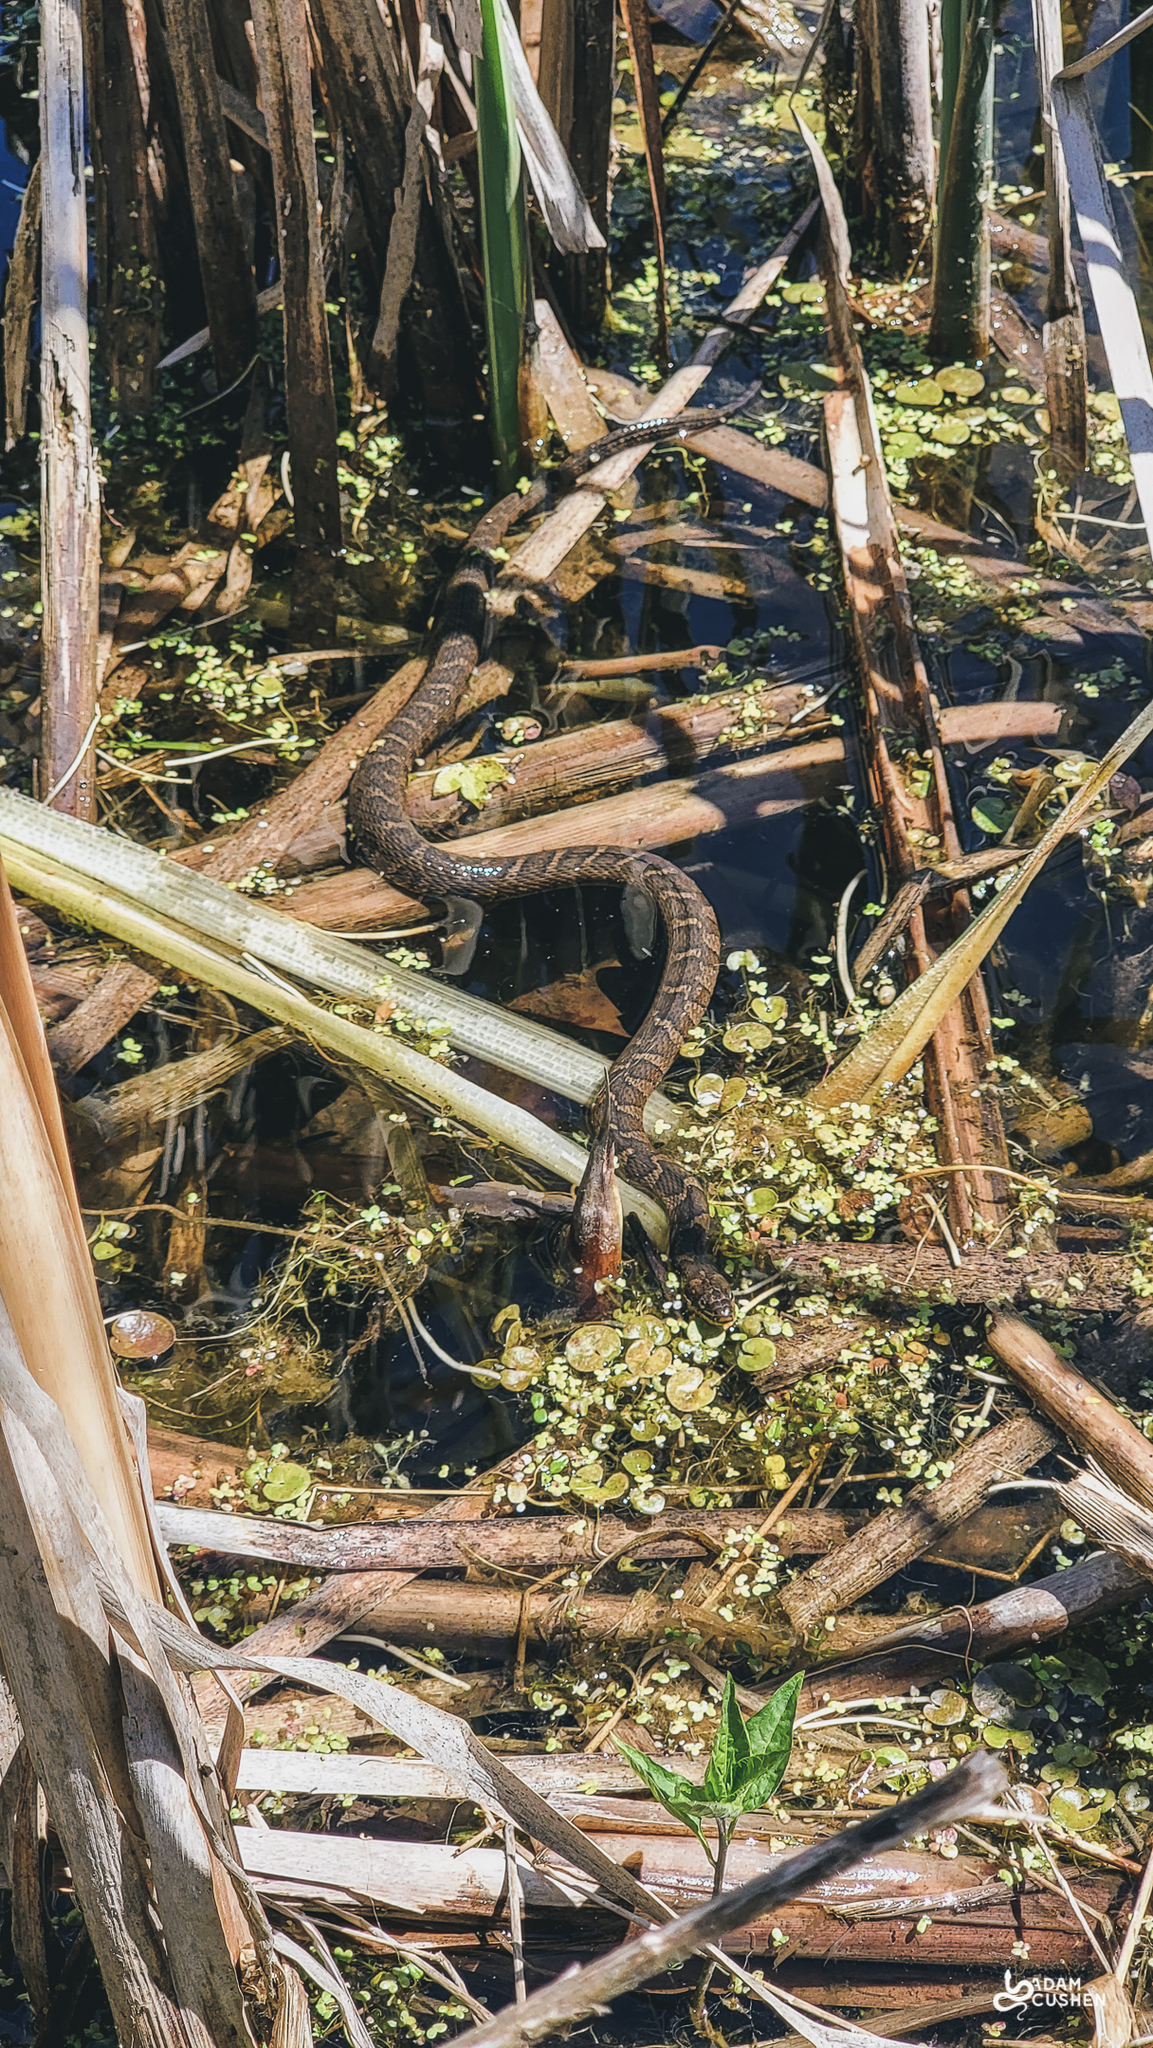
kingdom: Animalia
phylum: Chordata
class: Squamata
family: Colubridae
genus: Nerodia
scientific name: Nerodia sipedon
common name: Northern water snake
